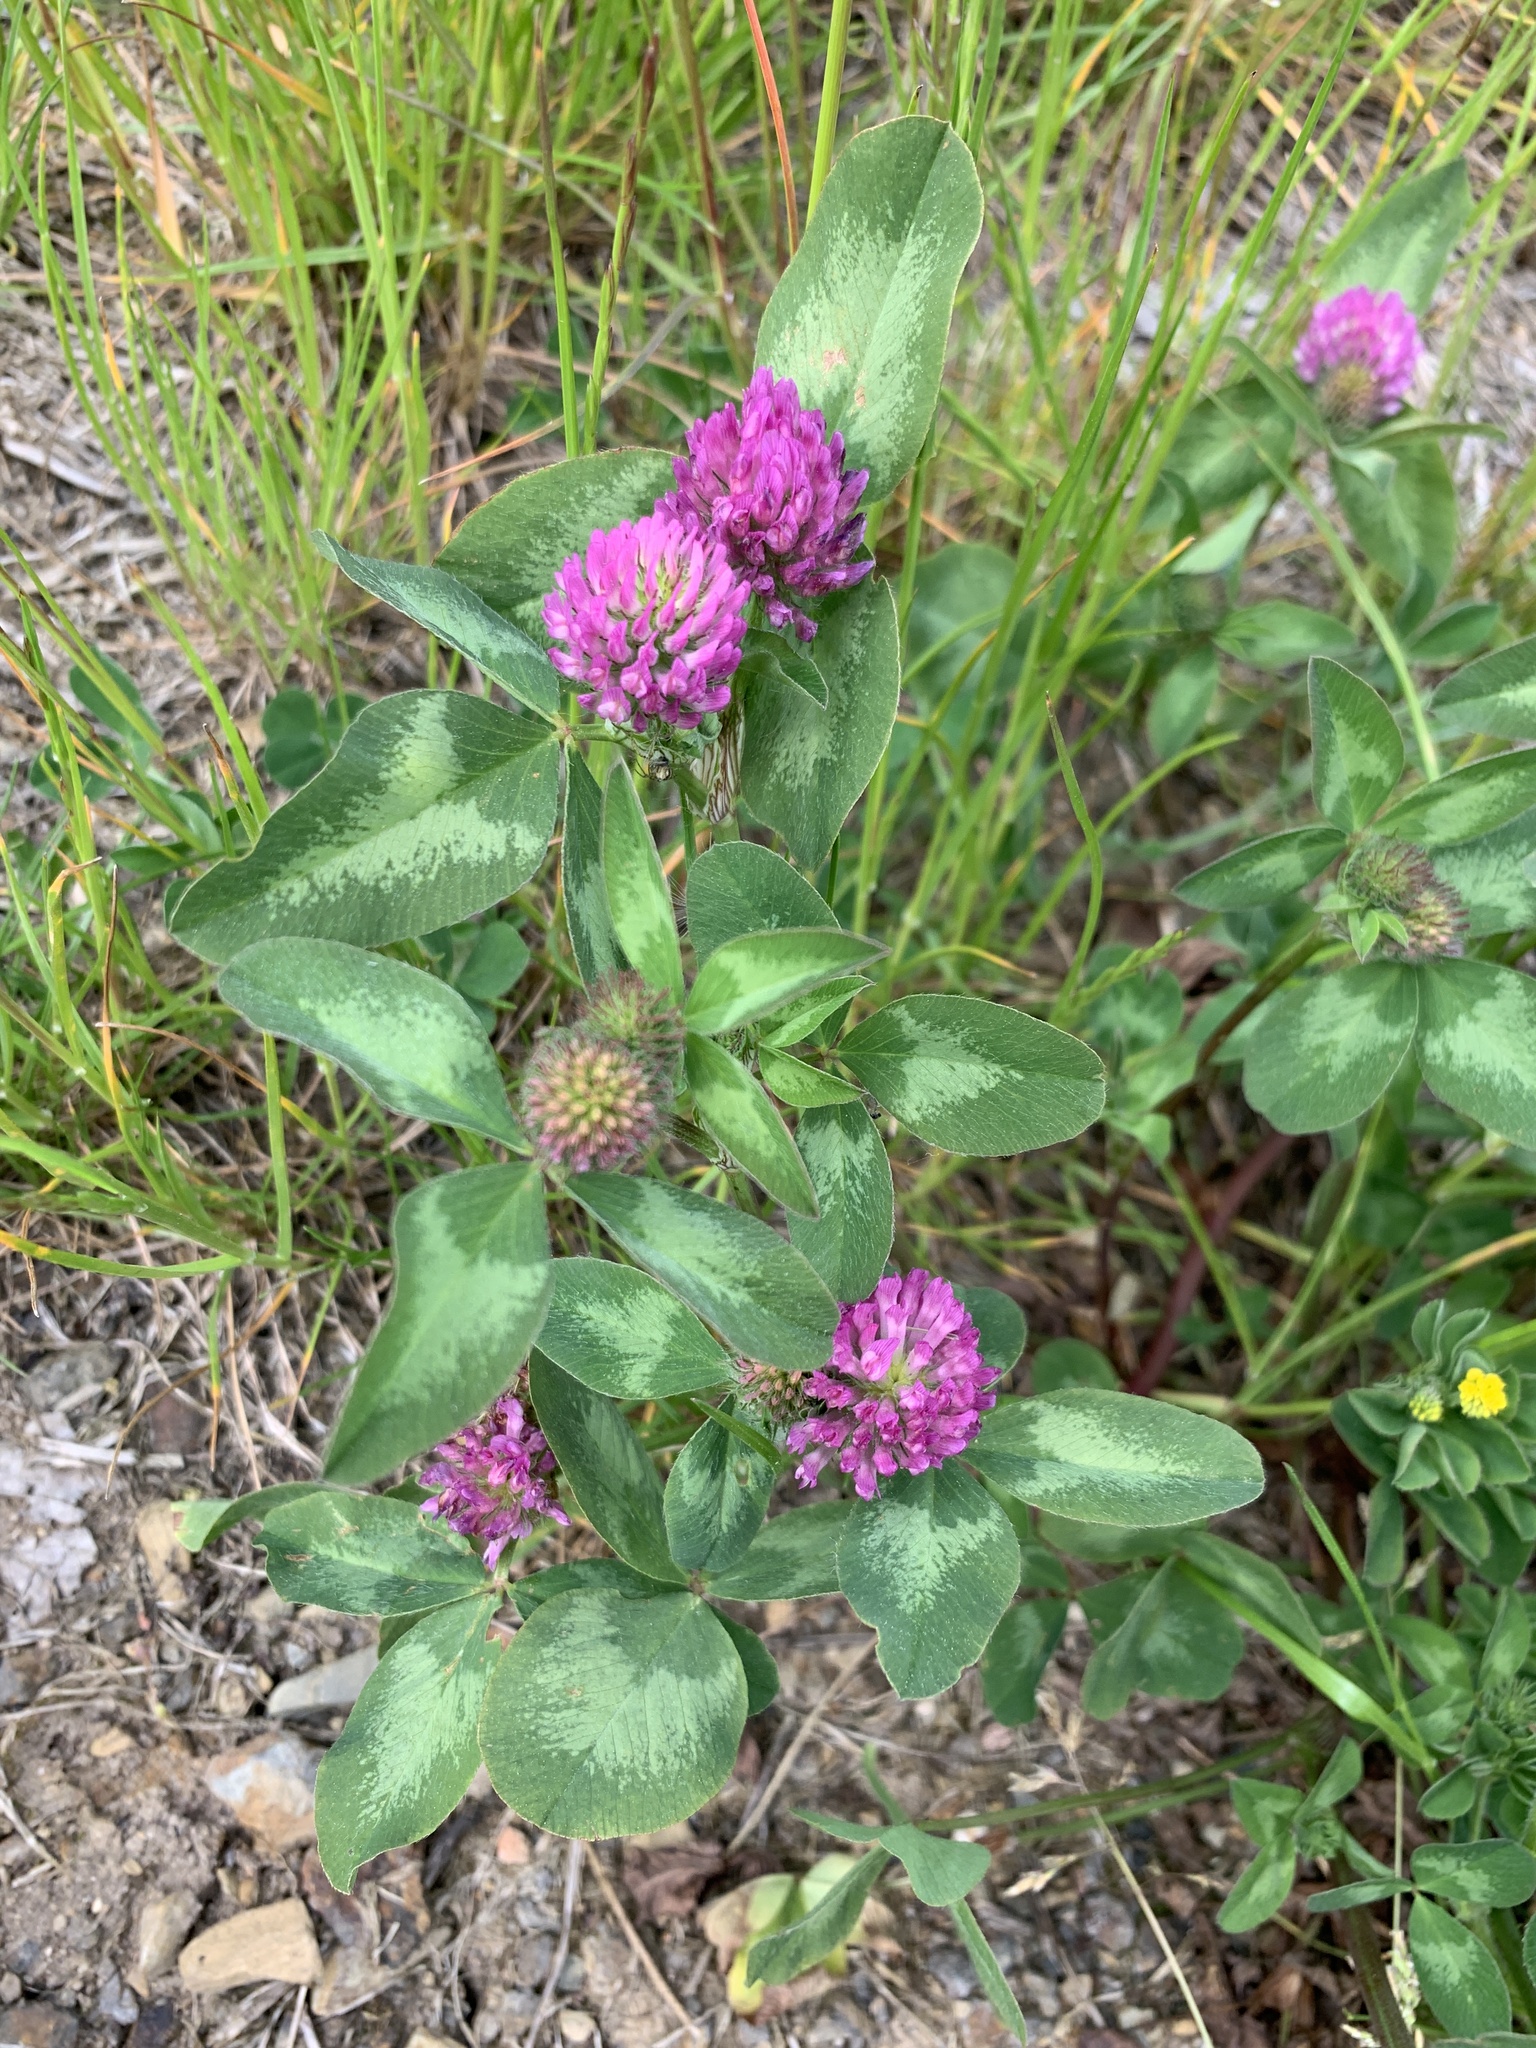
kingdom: Plantae
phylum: Tracheophyta
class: Magnoliopsida
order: Fabales
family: Fabaceae
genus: Trifolium
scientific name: Trifolium pratense
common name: Red clover
